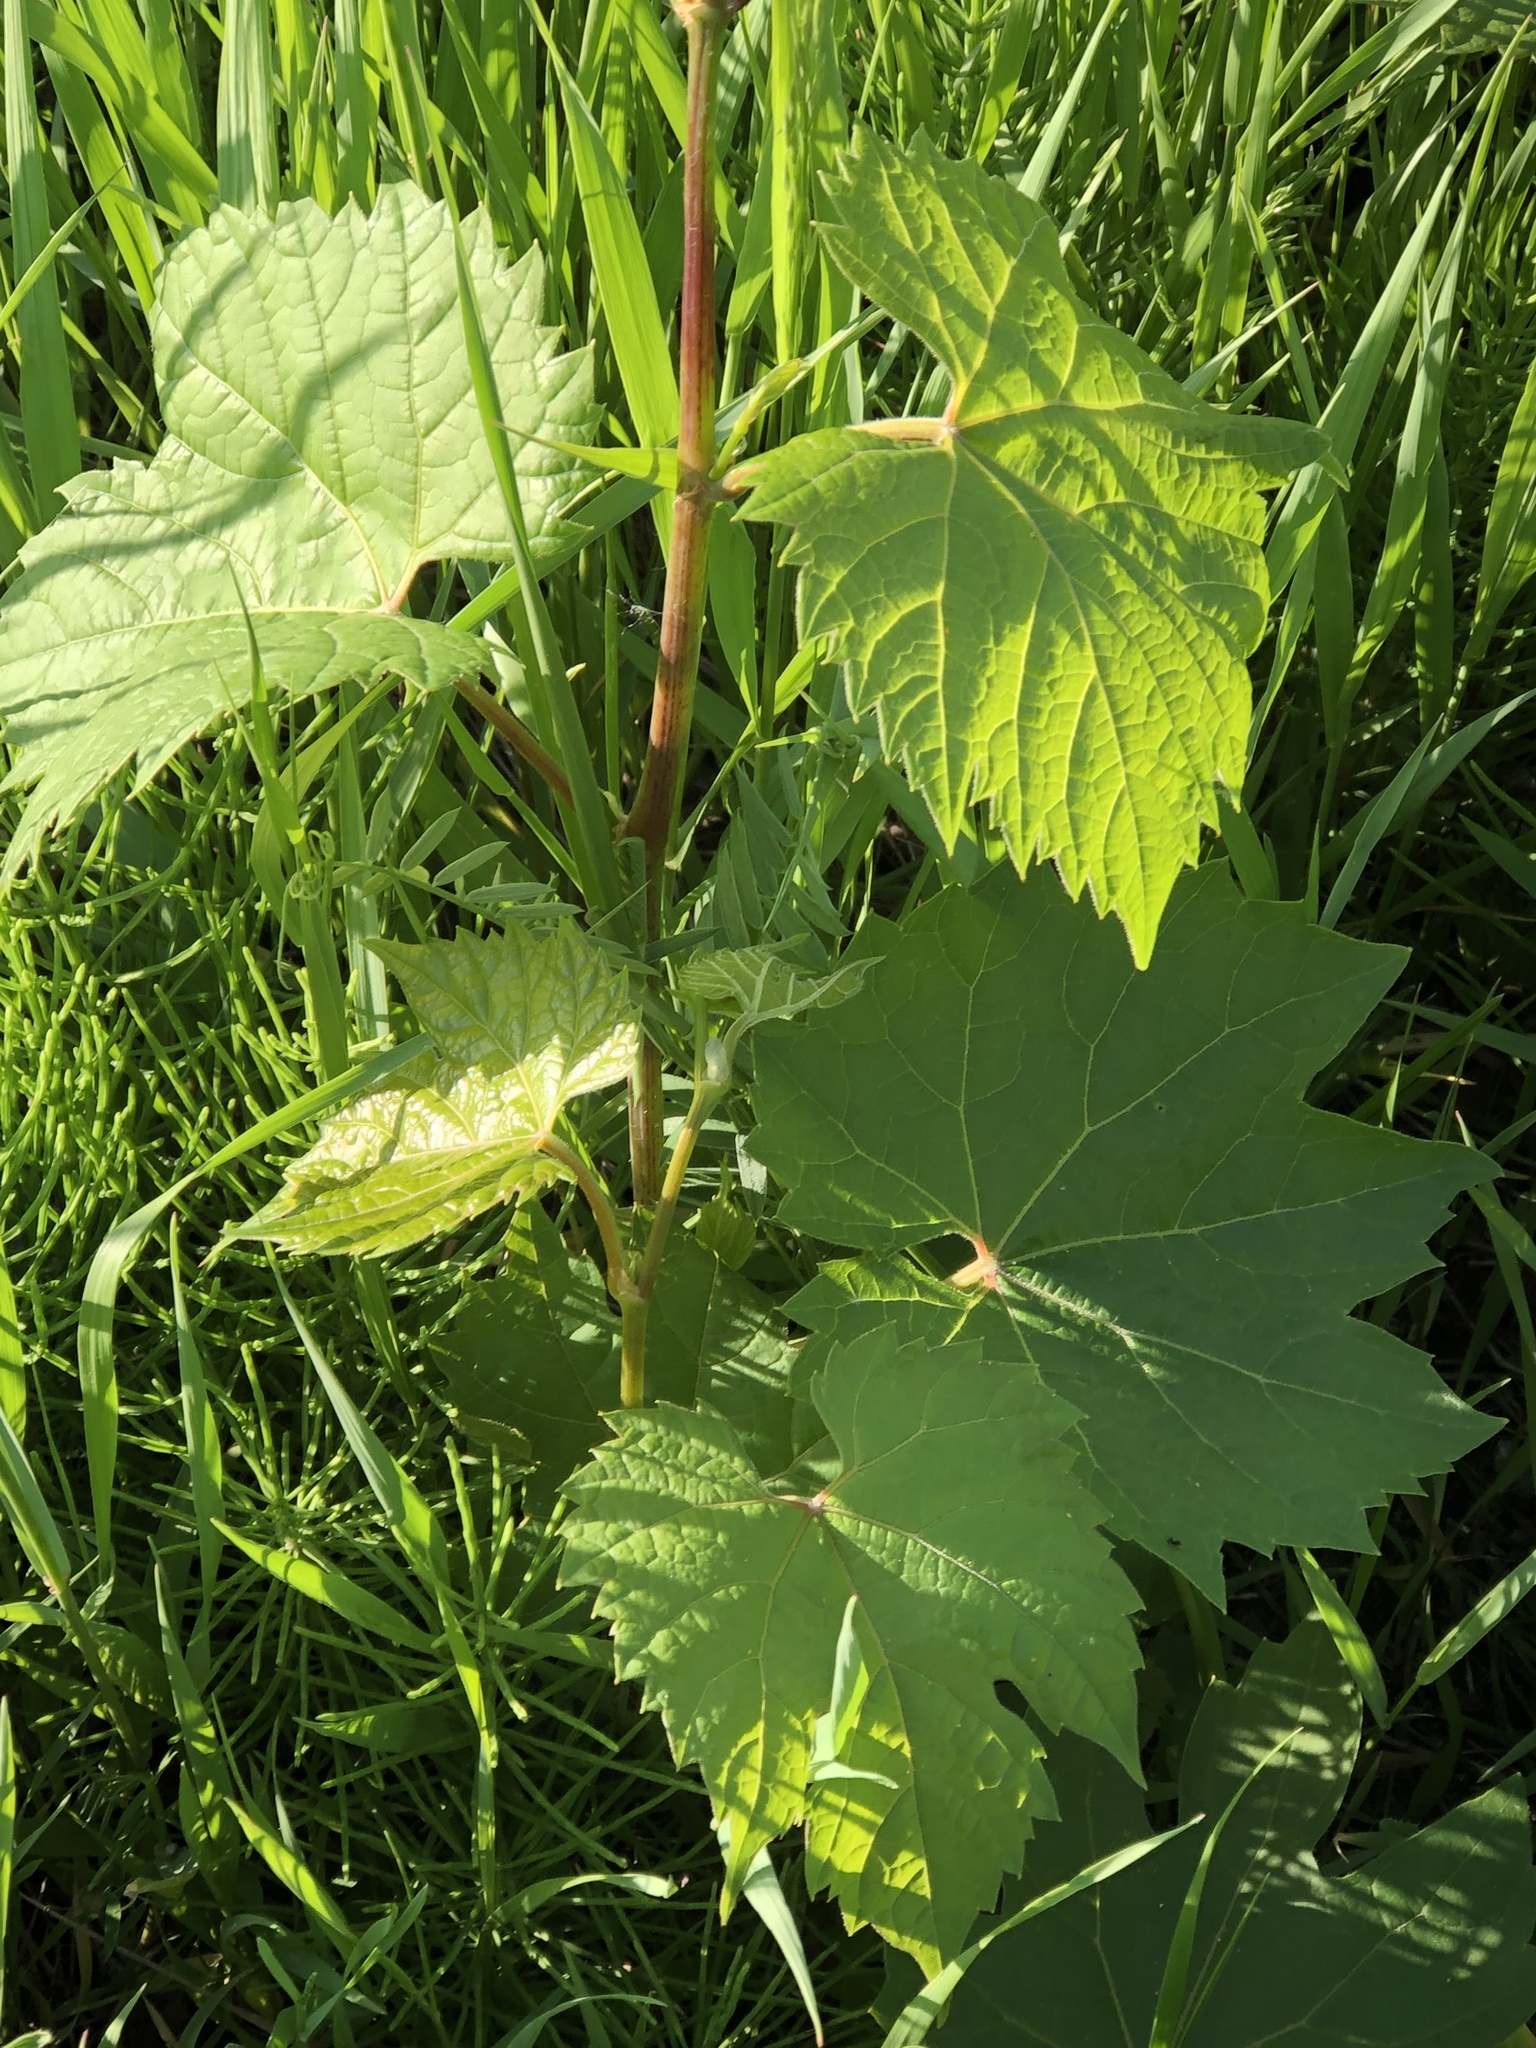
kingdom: Plantae
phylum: Tracheophyta
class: Magnoliopsida
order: Vitales
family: Vitaceae
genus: Vitis
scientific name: Vitis riparia
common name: Frost grape
